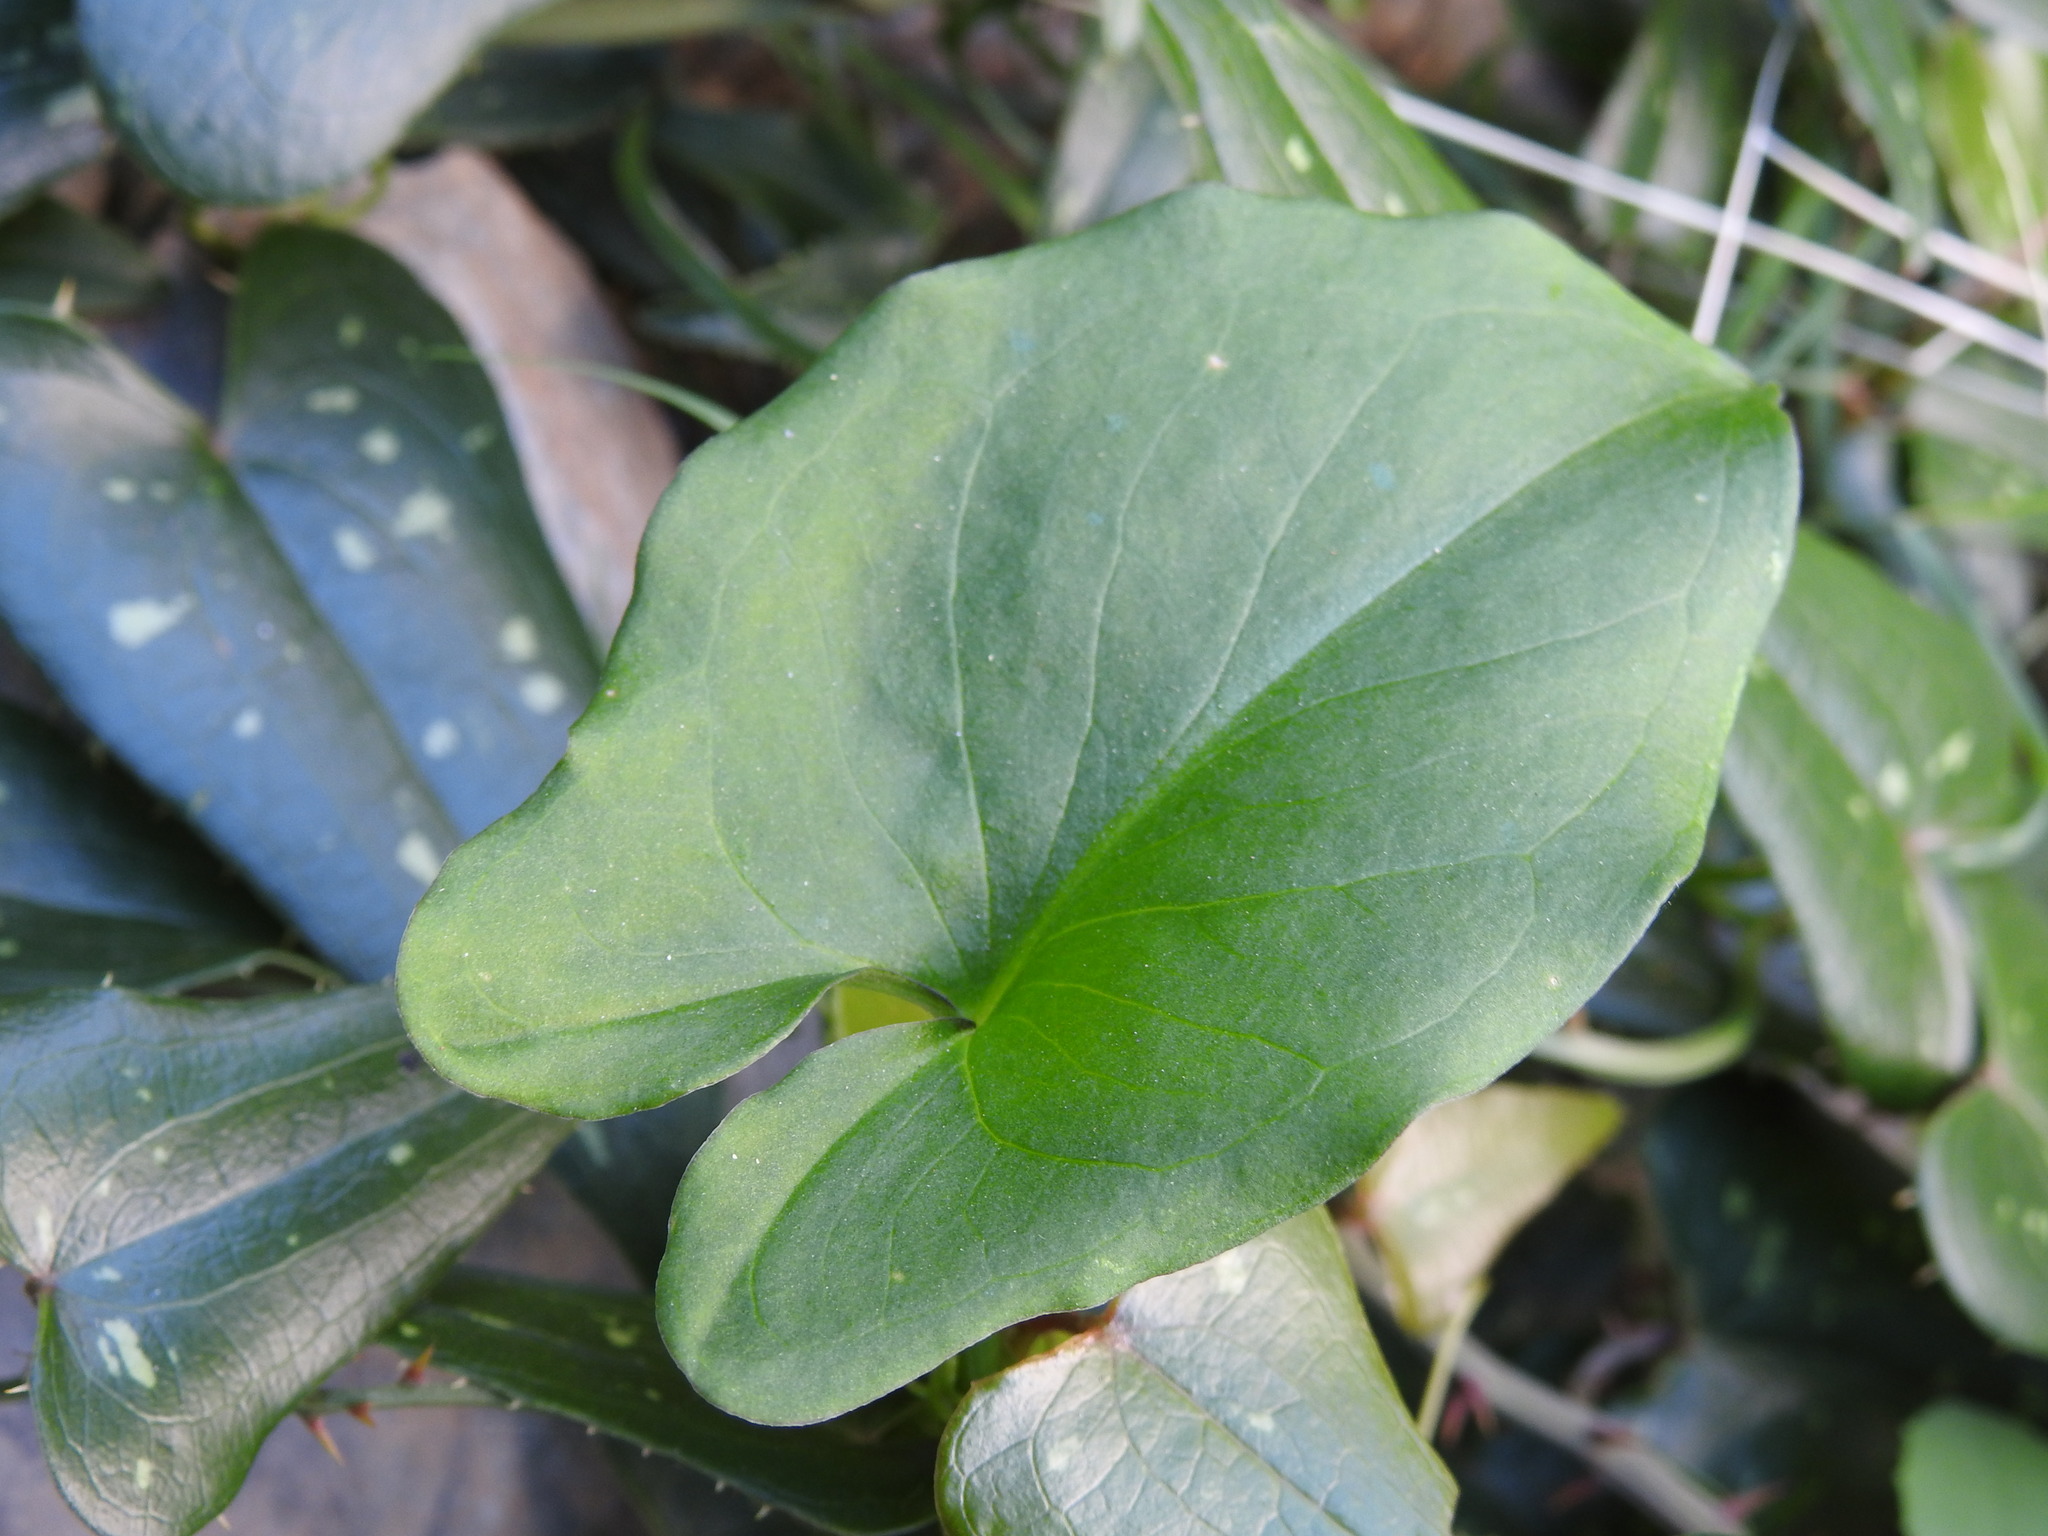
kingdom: Plantae
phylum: Tracheophyta
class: Liliopsida
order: Alismatales
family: Araceae
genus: Arisarum
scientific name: Arisarum vulgare
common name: Common arisarum
